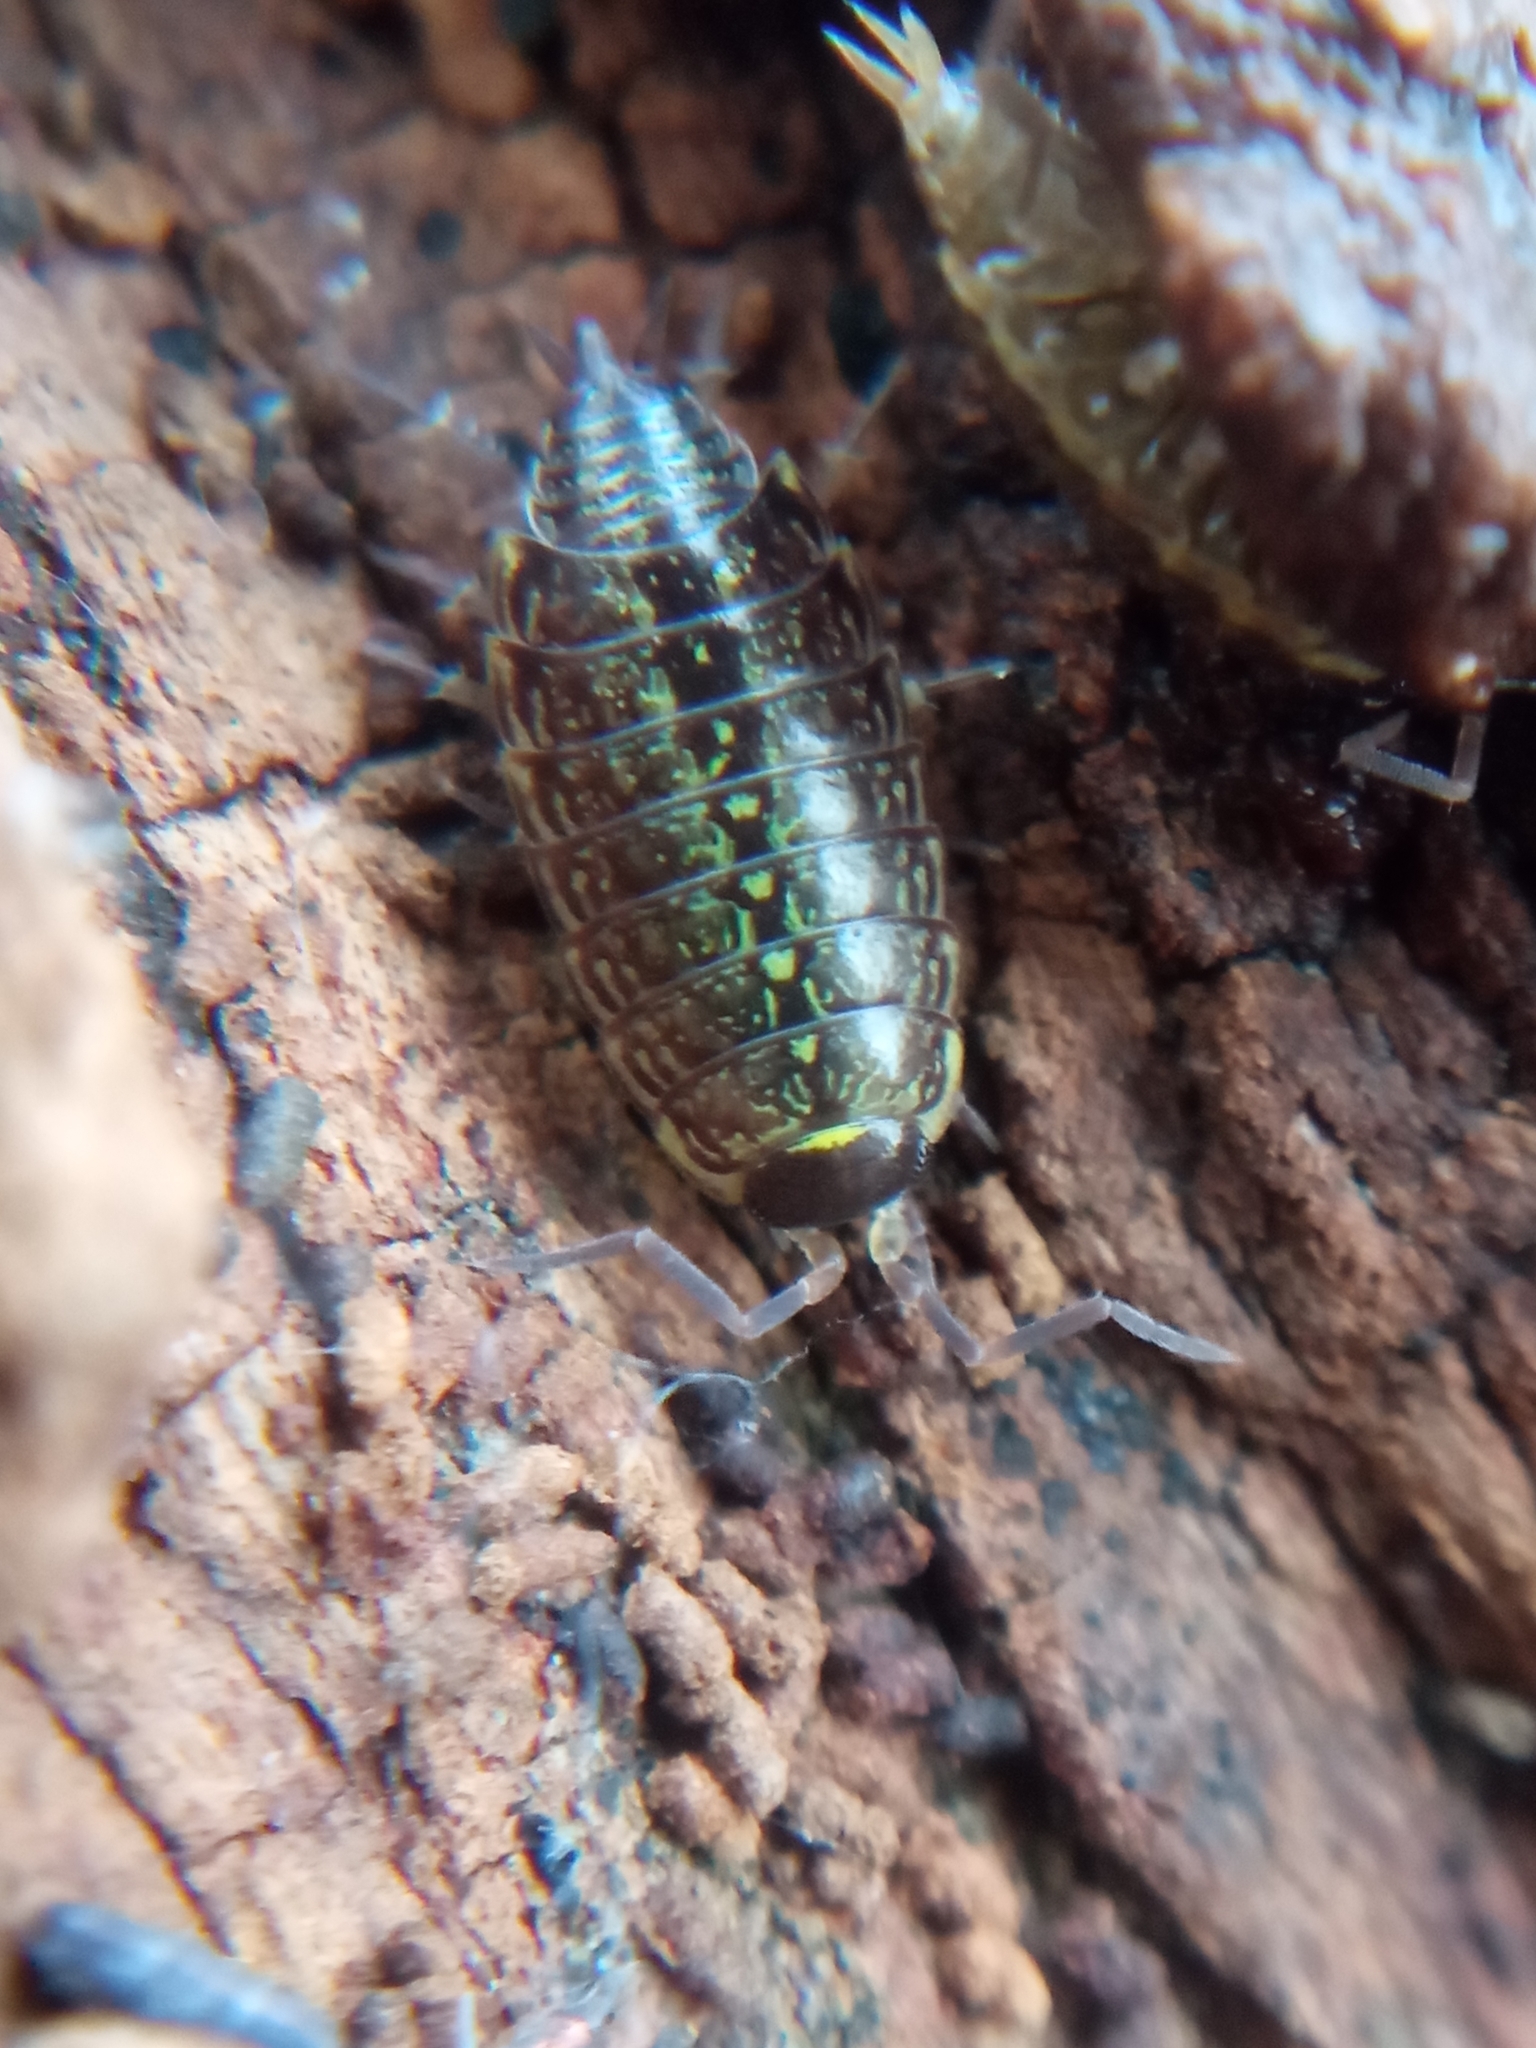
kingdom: Animalia
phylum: Arthropoda
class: Malacostraca
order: Isopoda
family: Philosciidae
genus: Philoscia
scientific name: Philoscia muscorum
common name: Common striped woodlouse
